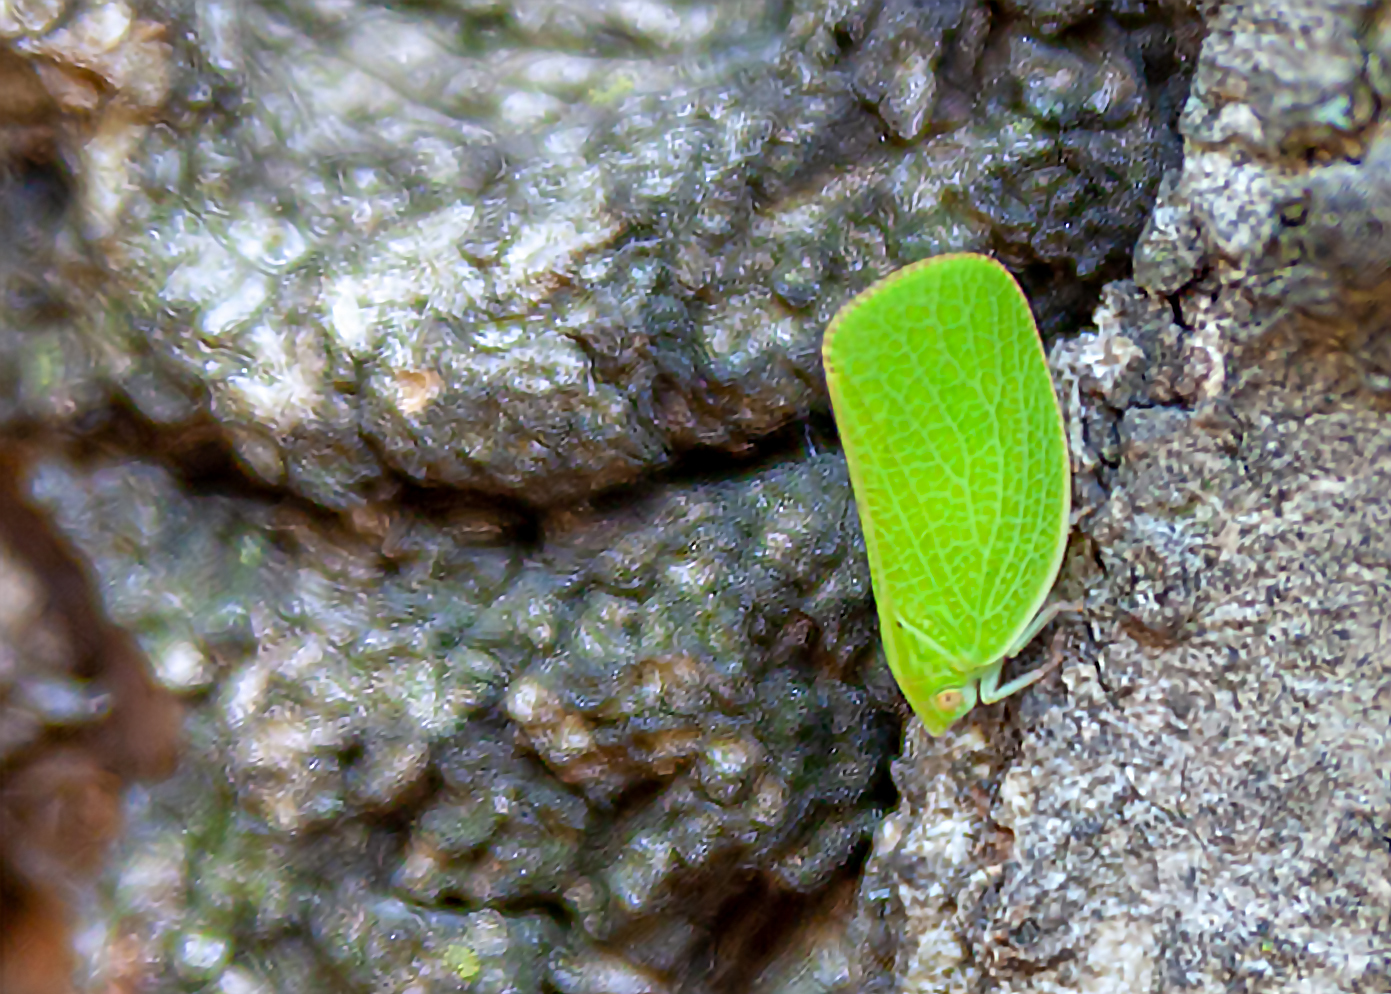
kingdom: Animalia
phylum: Arthropoda
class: Insecta
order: Hemiptera
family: Acanaloniidae
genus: Acanalonia
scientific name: Acanalonia conica
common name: Green cone-headed planthopper
